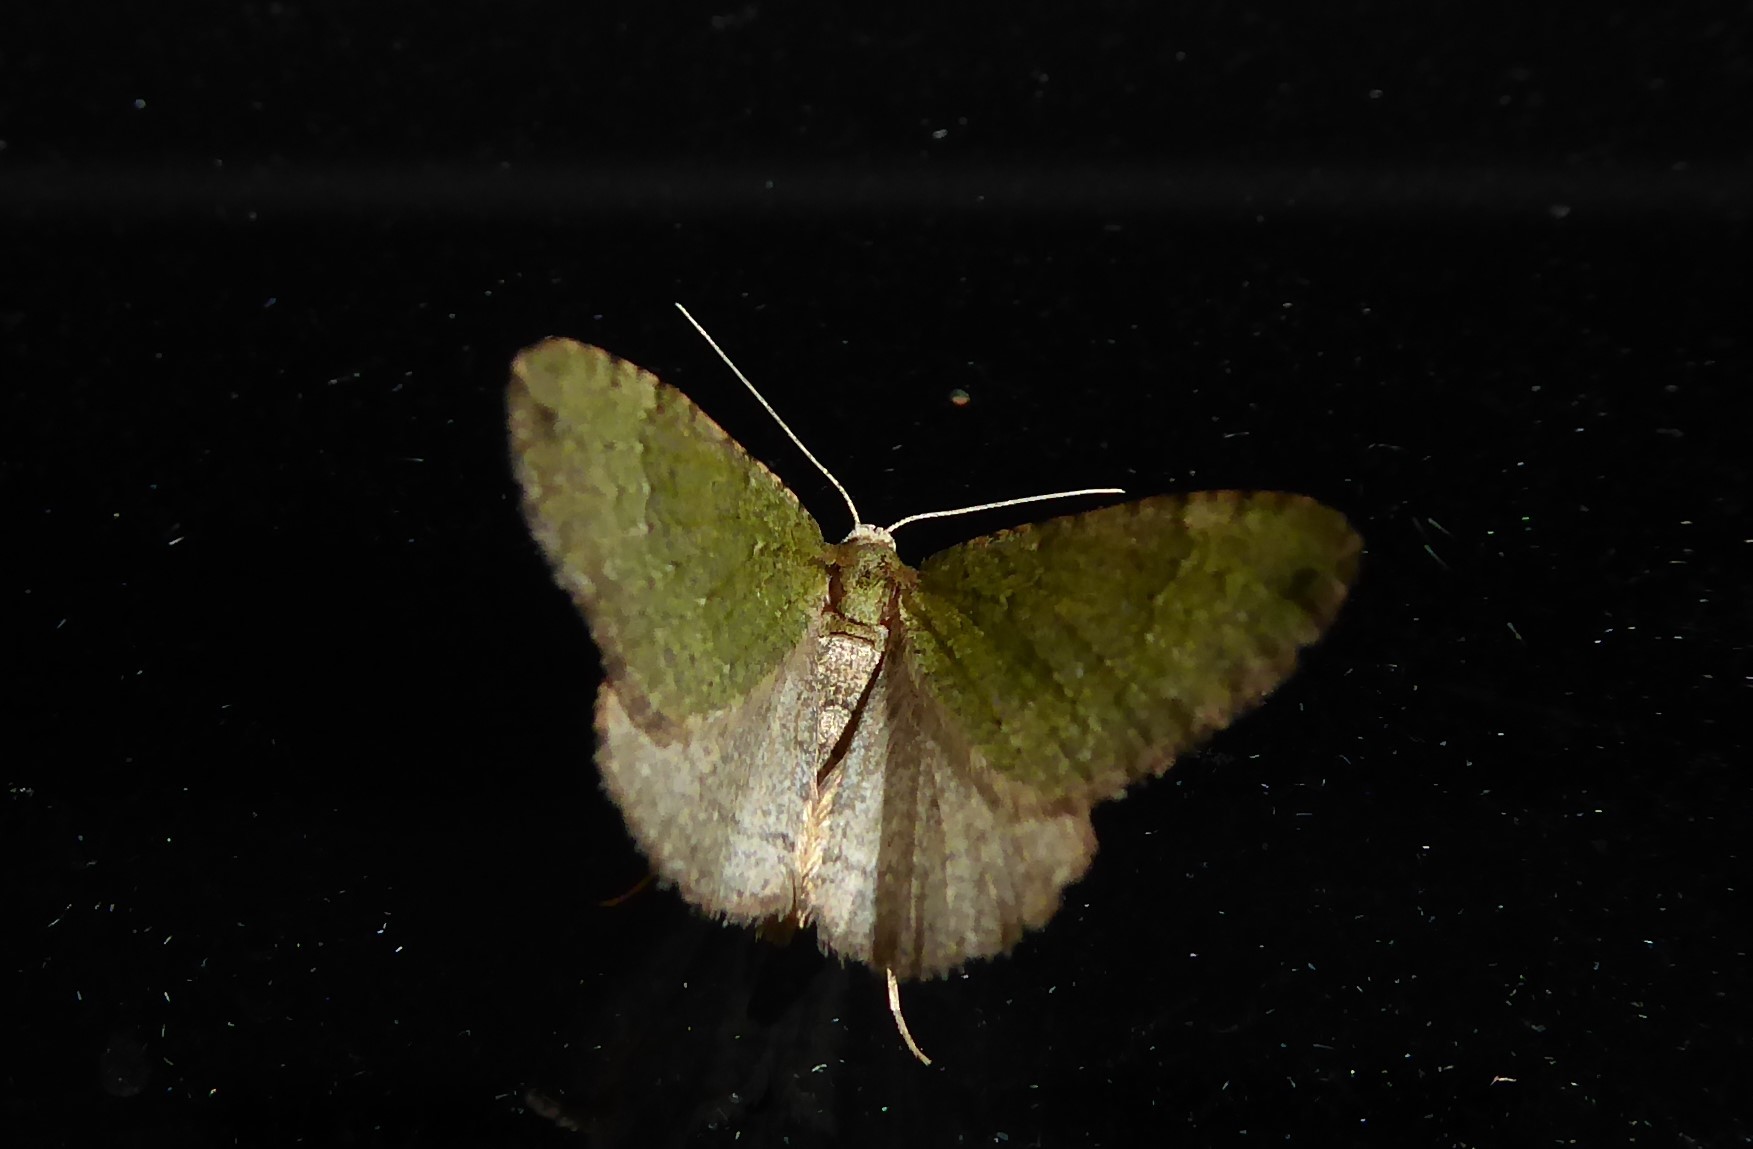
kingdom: Animalia
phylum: Arthropoda
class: Insecta
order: Lepidoptera
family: Geometridae
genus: Epyaxa
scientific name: Epyaxa rosearia
